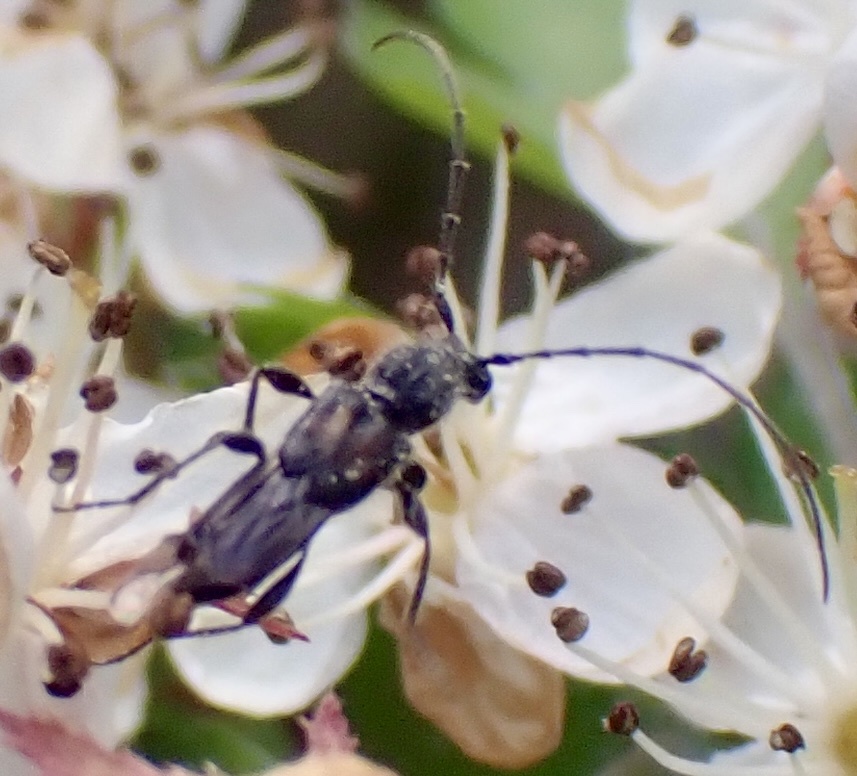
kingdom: Animalia
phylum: Arthropoda
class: Insecta
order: Coleoptera
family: Cerambycidae
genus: Molorchus
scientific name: Molorchus bimaculatus
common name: Bimaculate longhorn beetle
